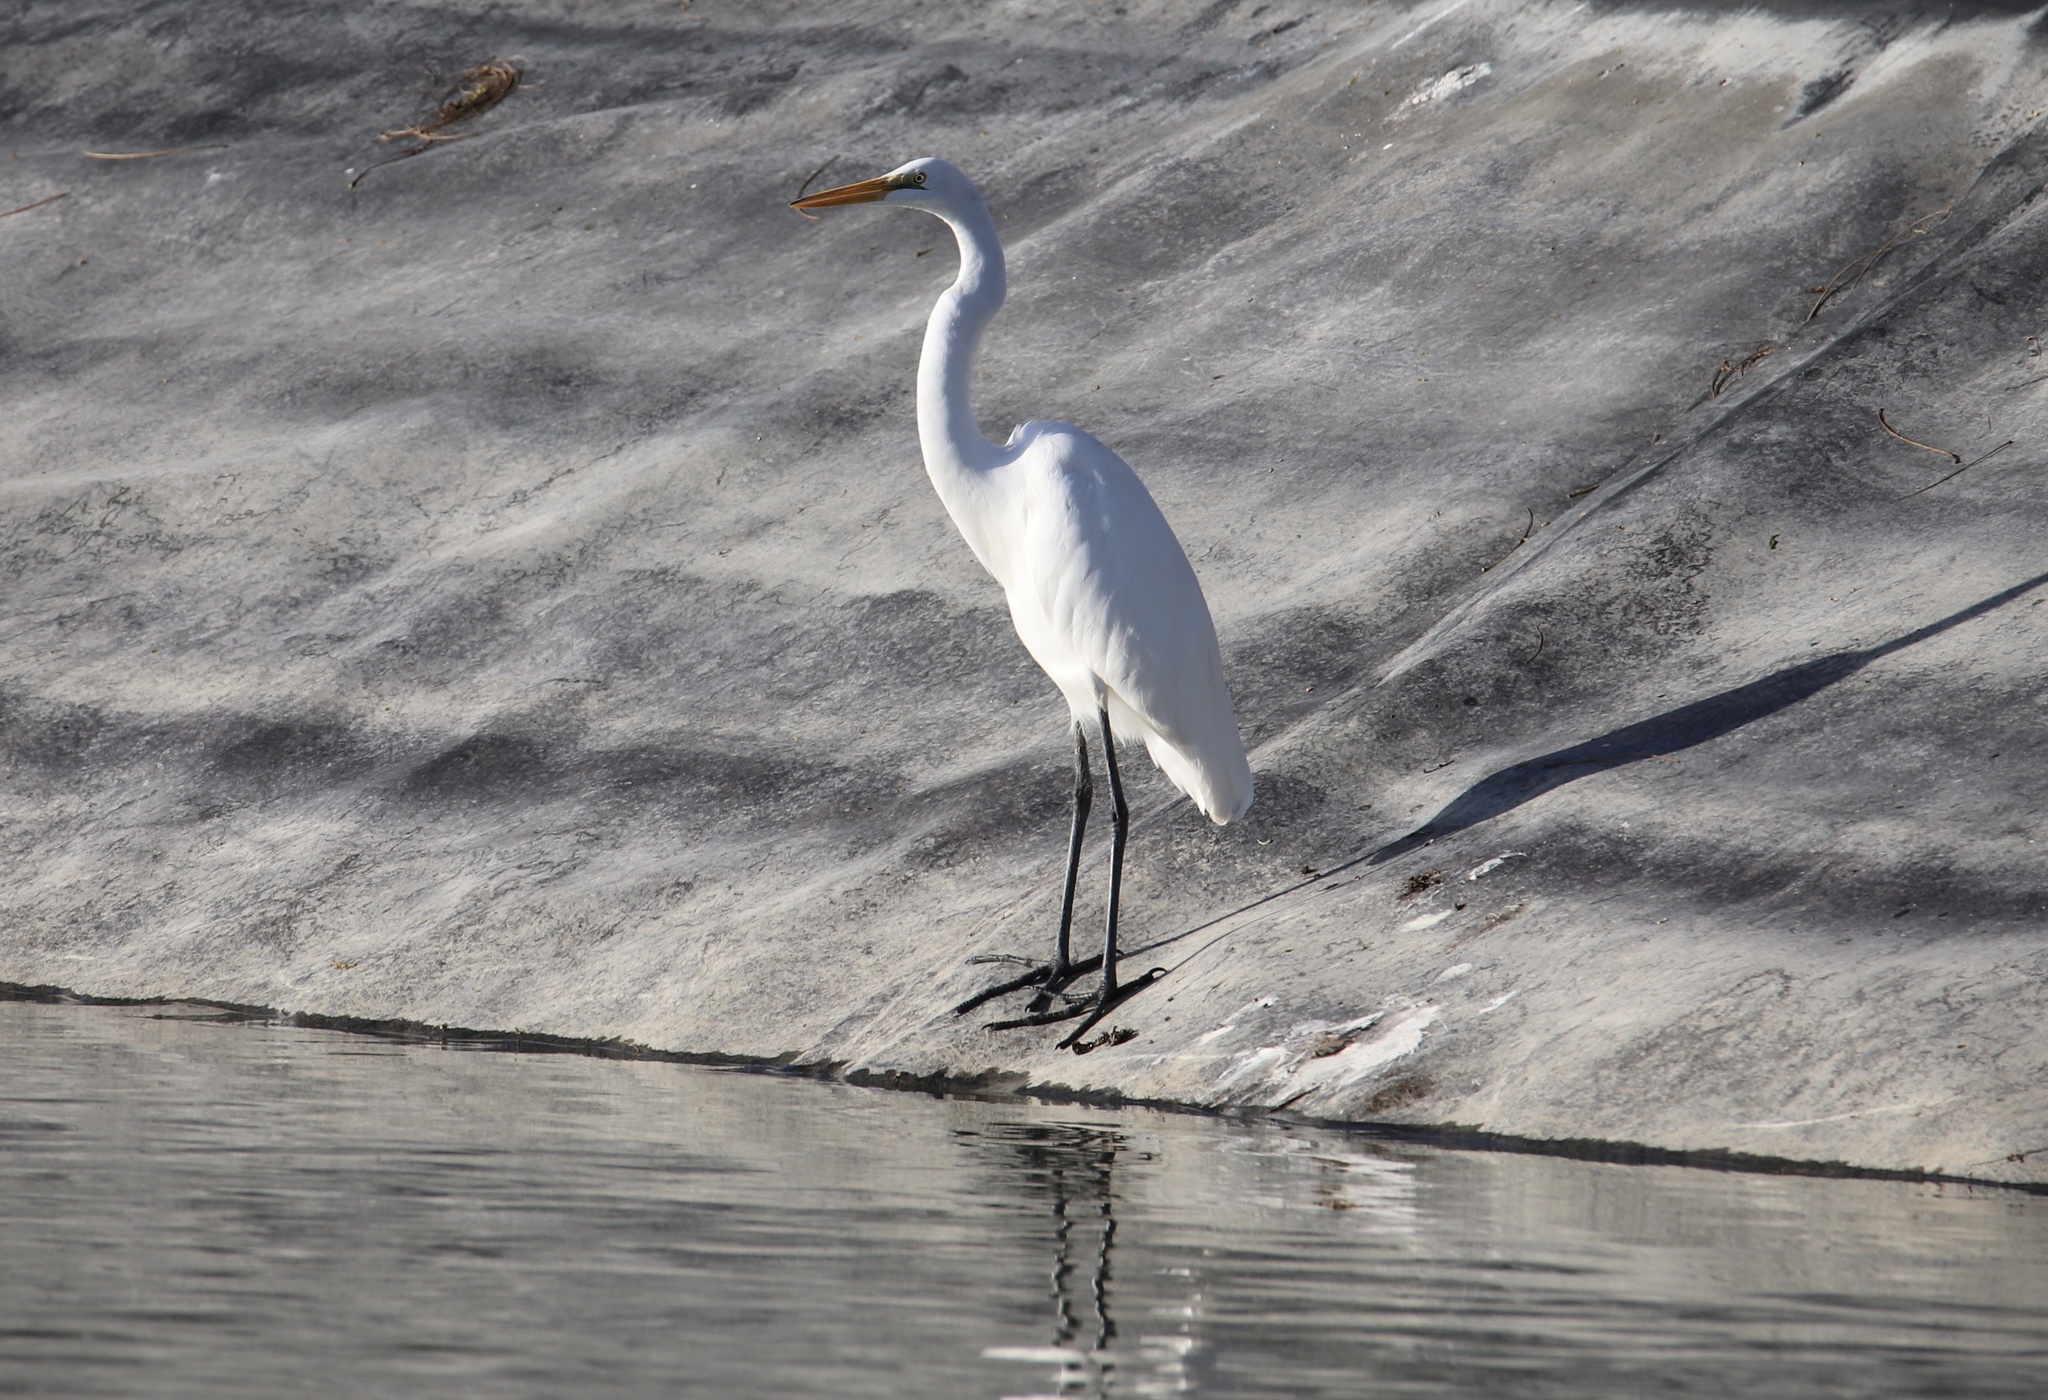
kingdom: Animalia
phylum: Chordata
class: Aves
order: Pelecaniformes
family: Ardeidae
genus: Ardea
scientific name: Ardea alba
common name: Great egret
